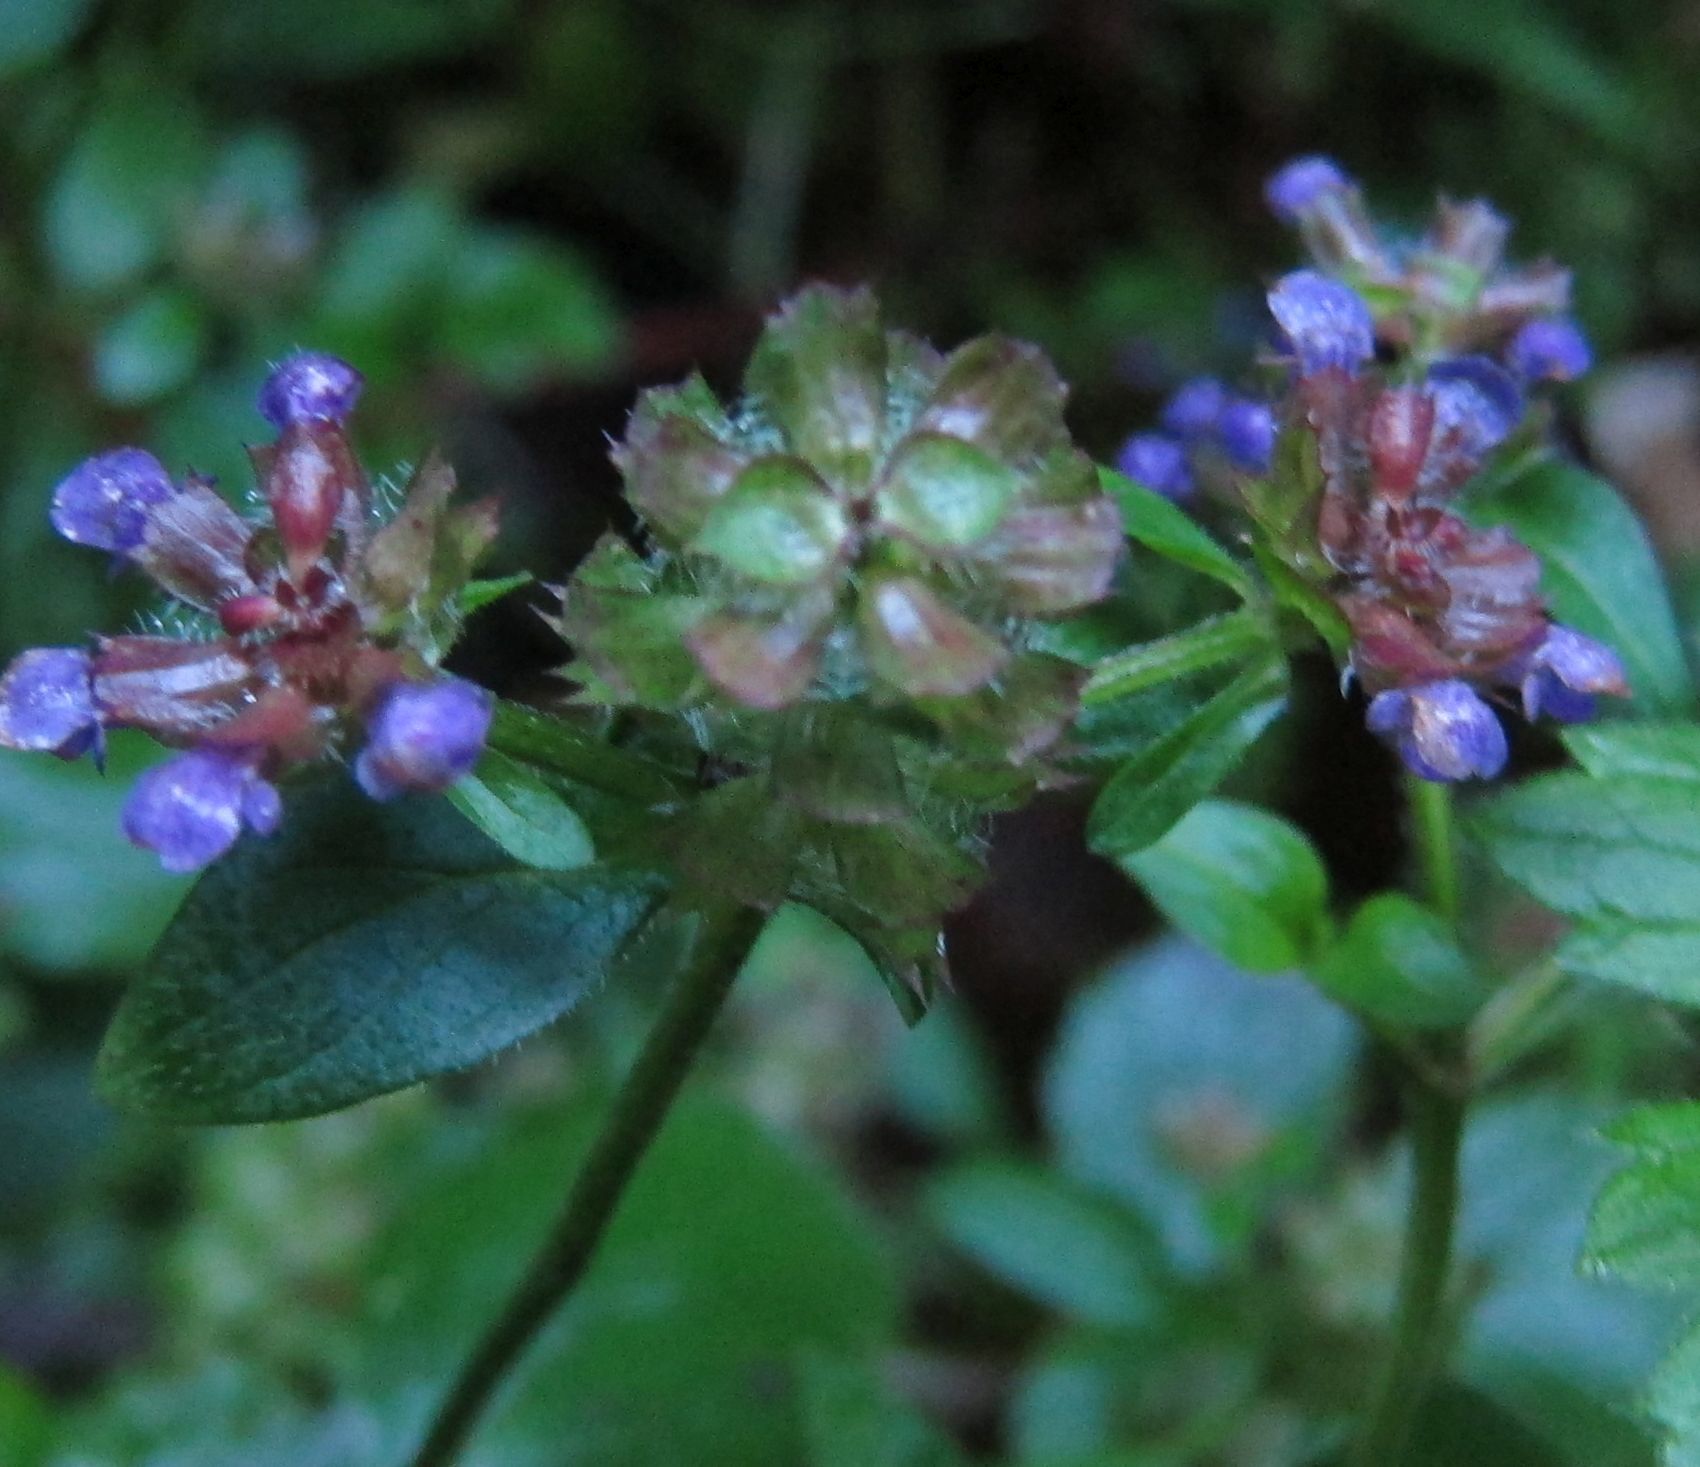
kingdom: Plantae
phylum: Tracheophyta
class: Magnoliopsida
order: Lamiales
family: Lamiaceae
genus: Prunella
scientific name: Prunella vulgaris
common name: Heal-all
